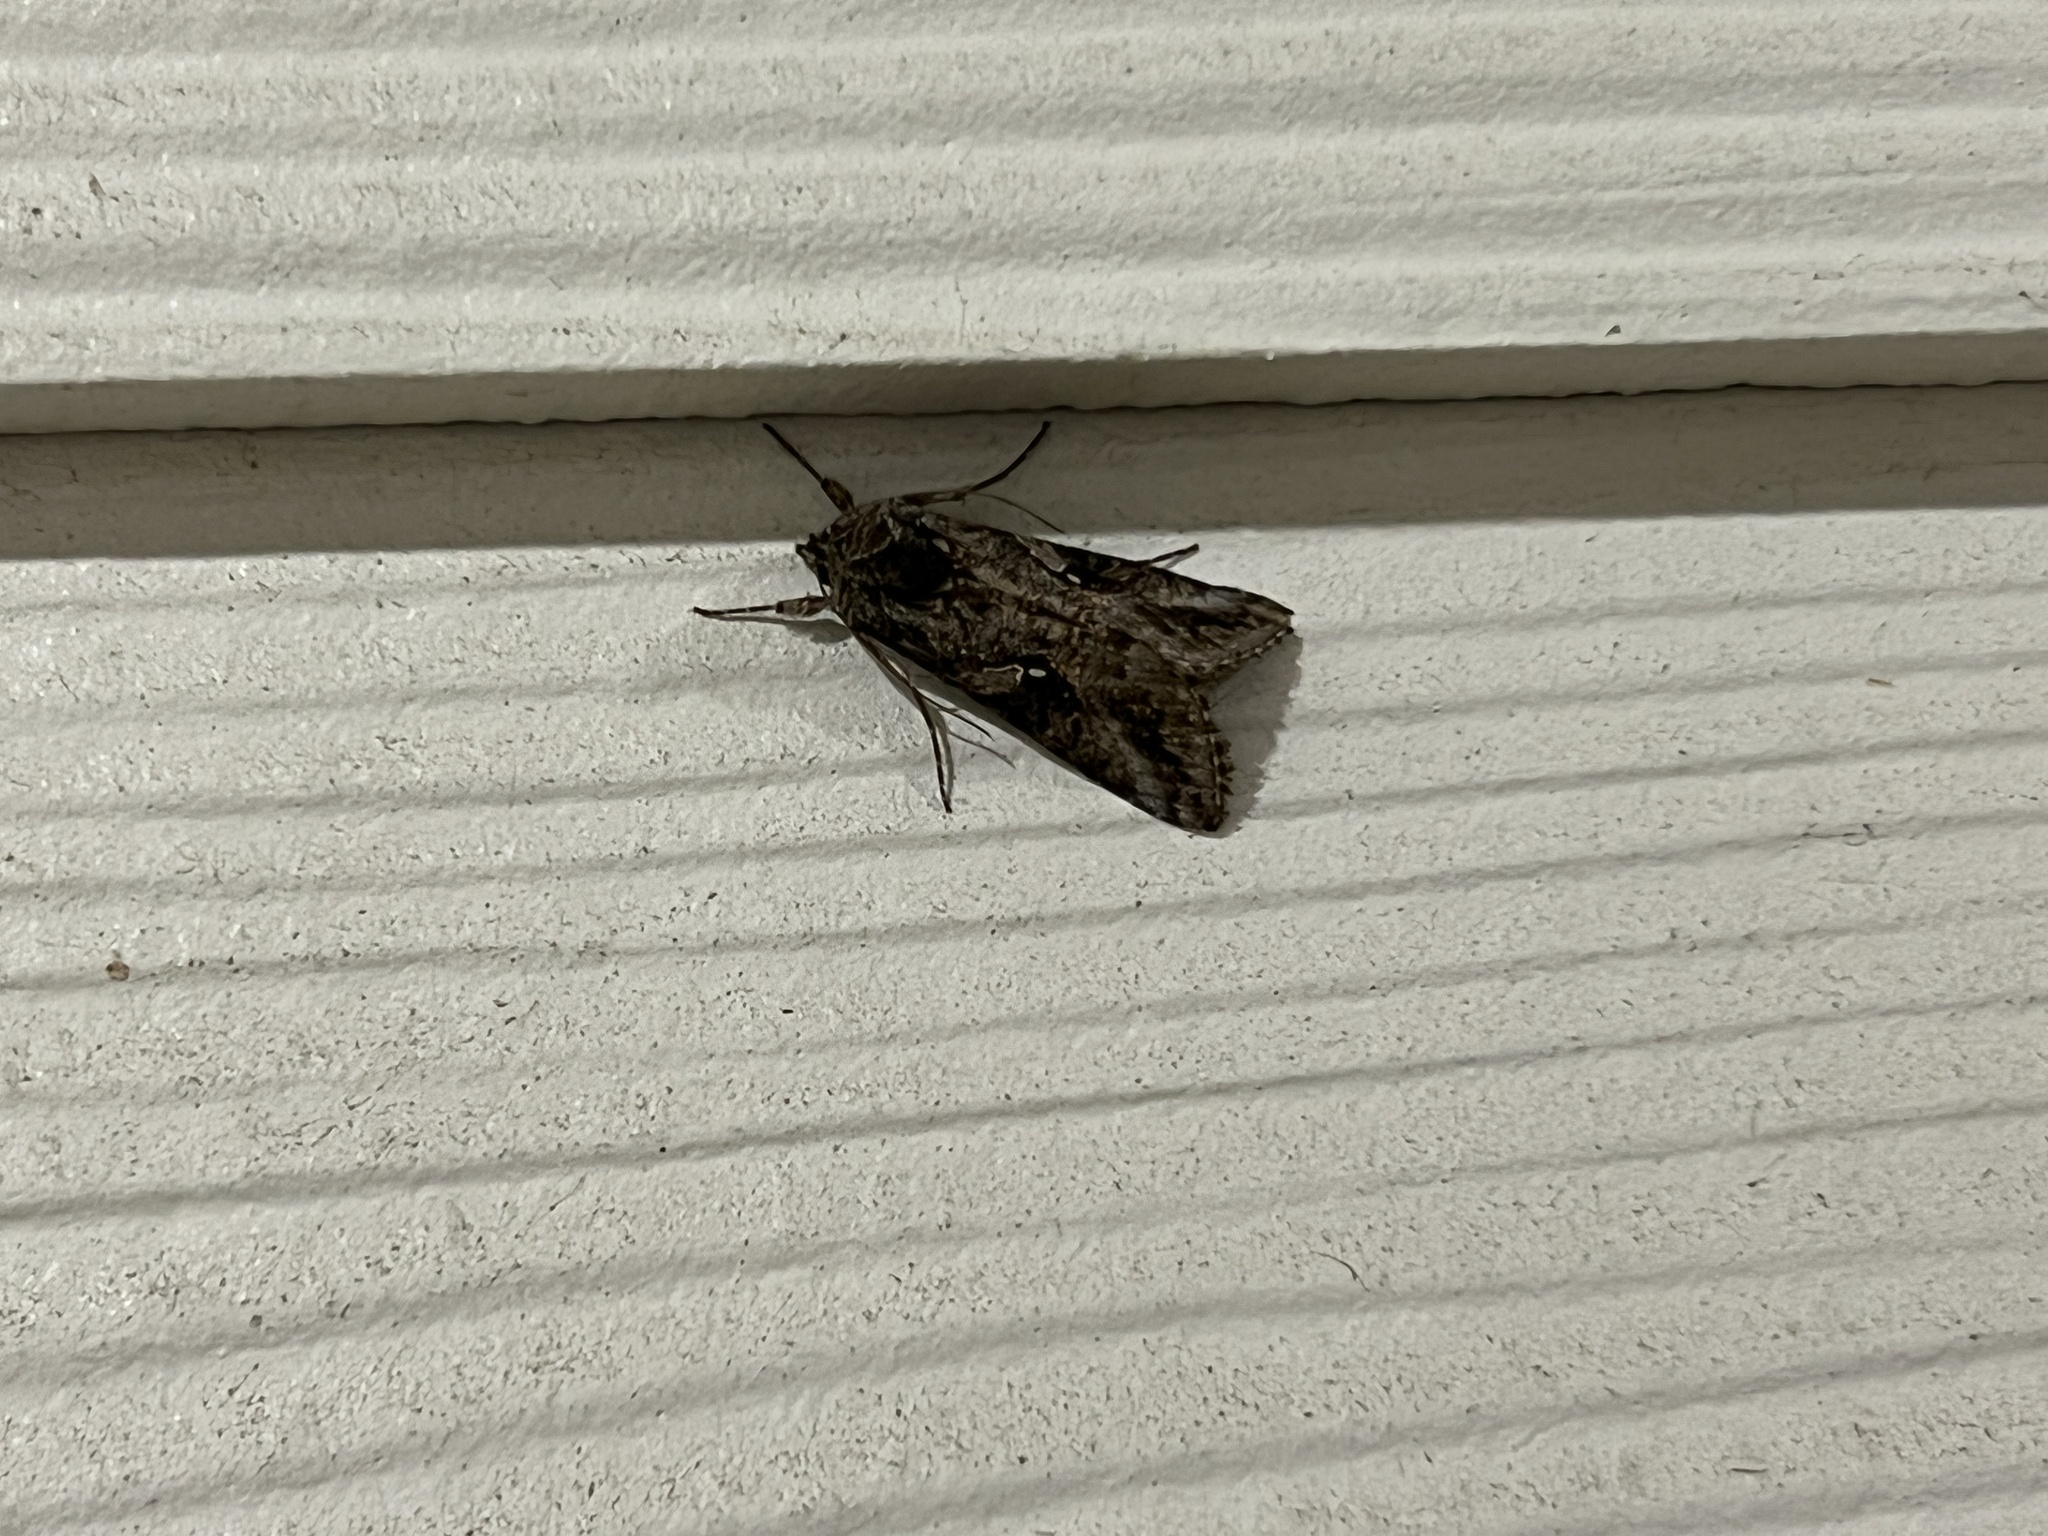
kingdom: Animalia
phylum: Arthropoda
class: Insecta
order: Lepidoptera
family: Noctuidae
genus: Rachiplusia
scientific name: Rachiplusia ou
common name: Gray looper moth
